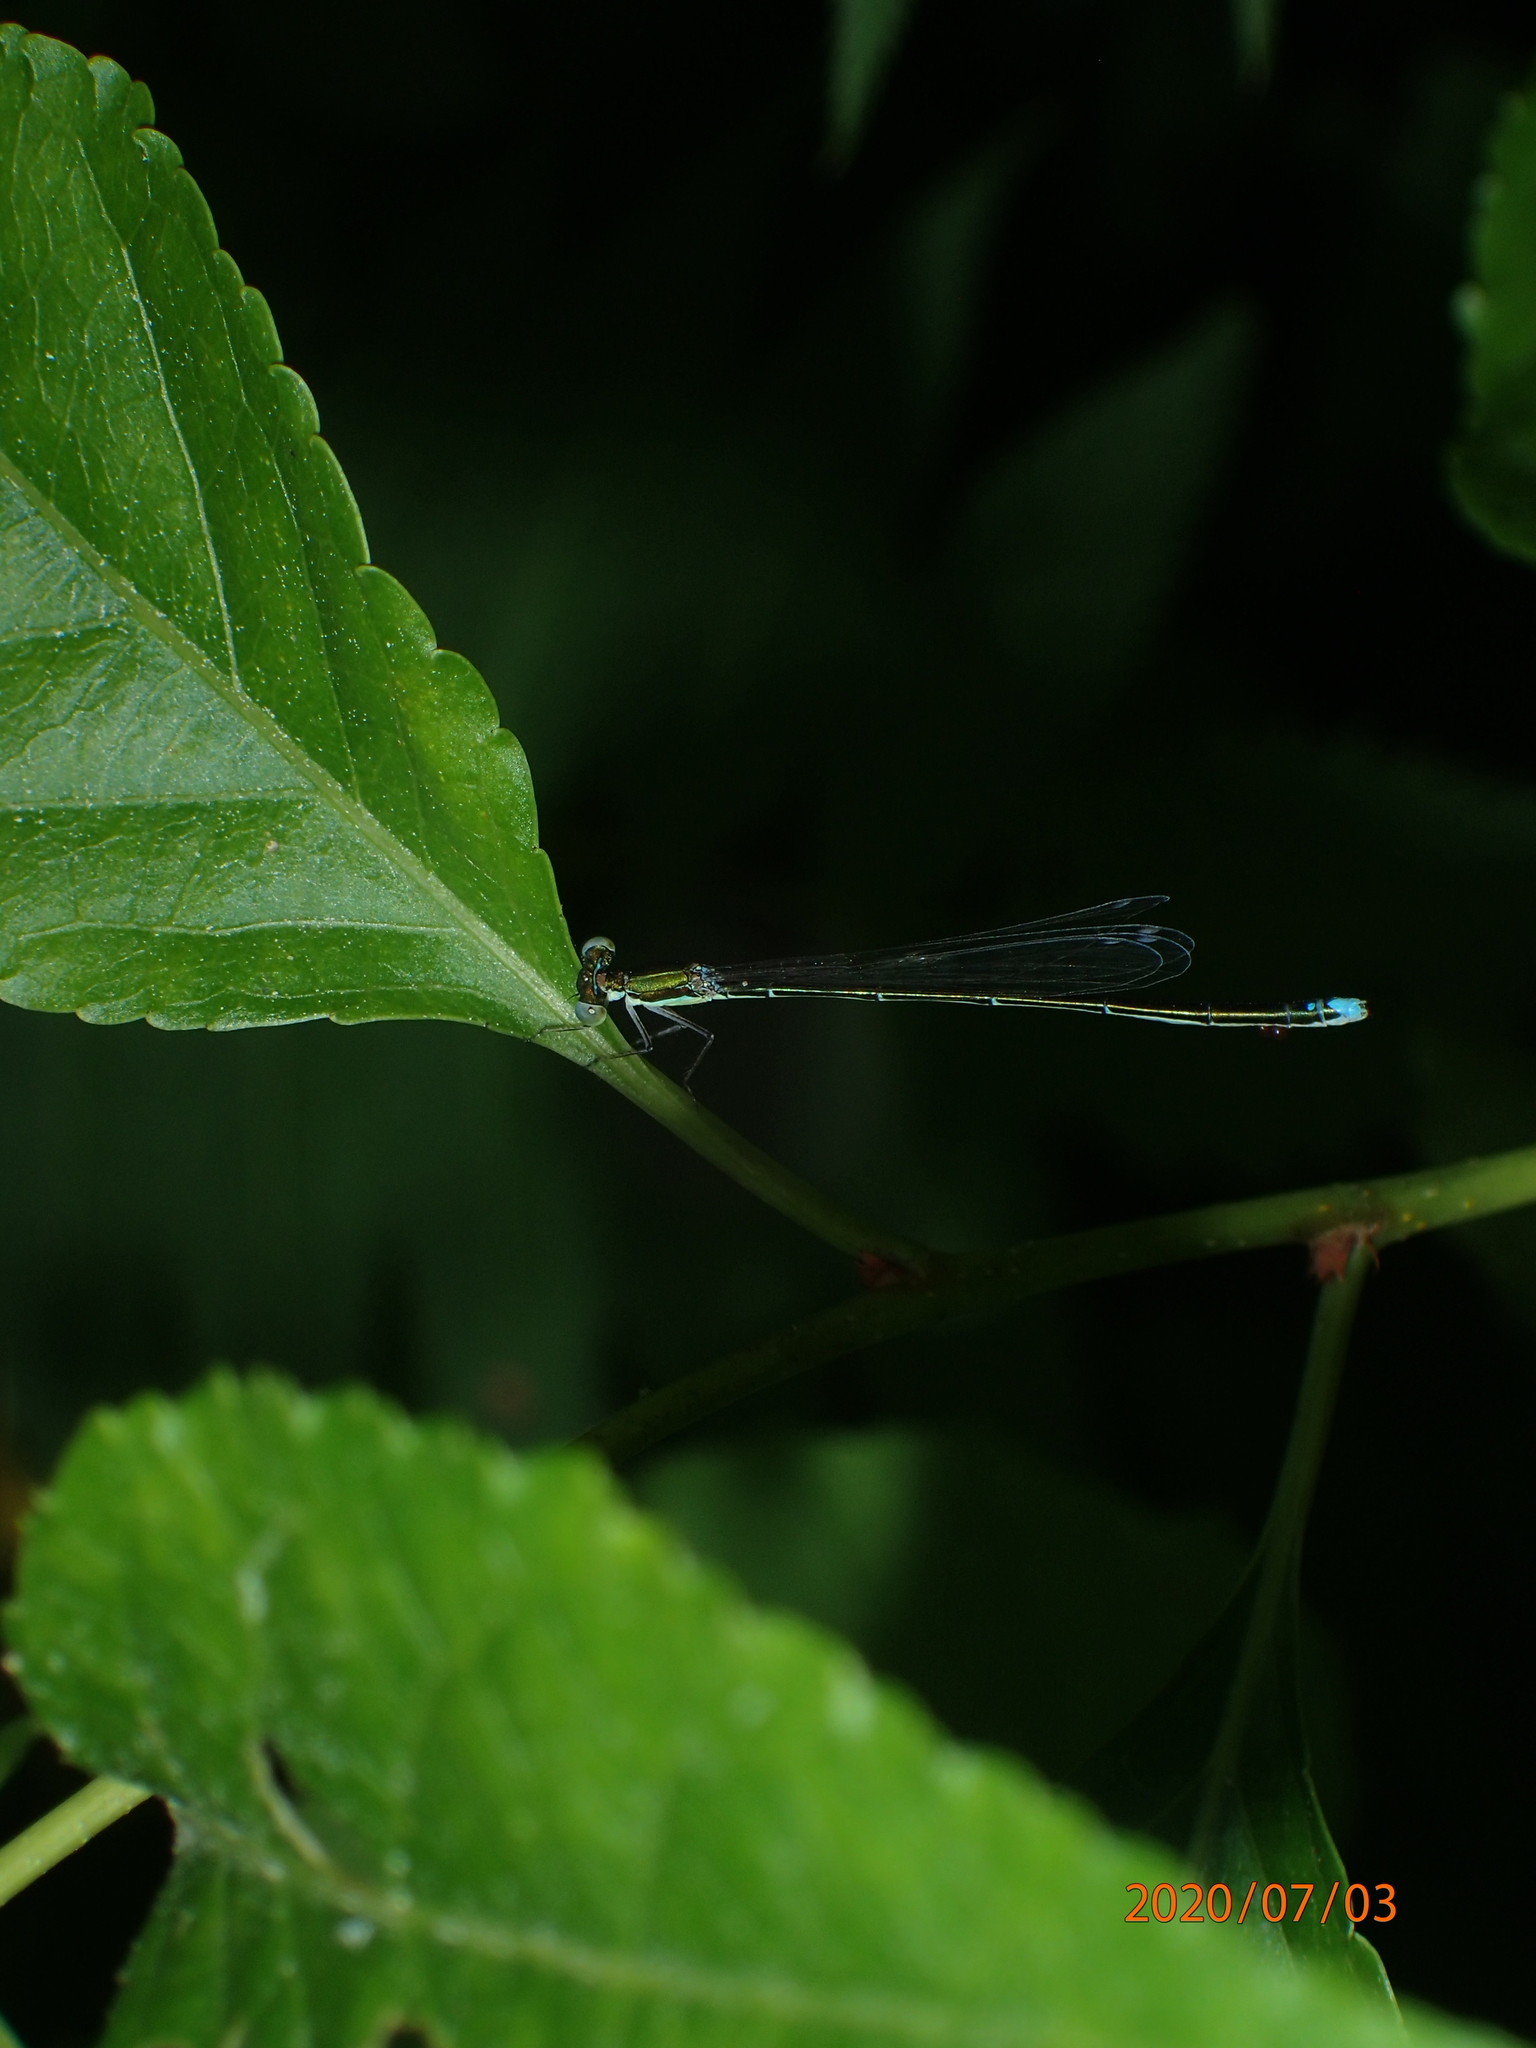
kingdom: Animalia
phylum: Arthropoda
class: Insecta
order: Odonata
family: Coenagrionidae
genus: Nehalennia
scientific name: Nehalennia gracilis
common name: Sphagnum sprite
